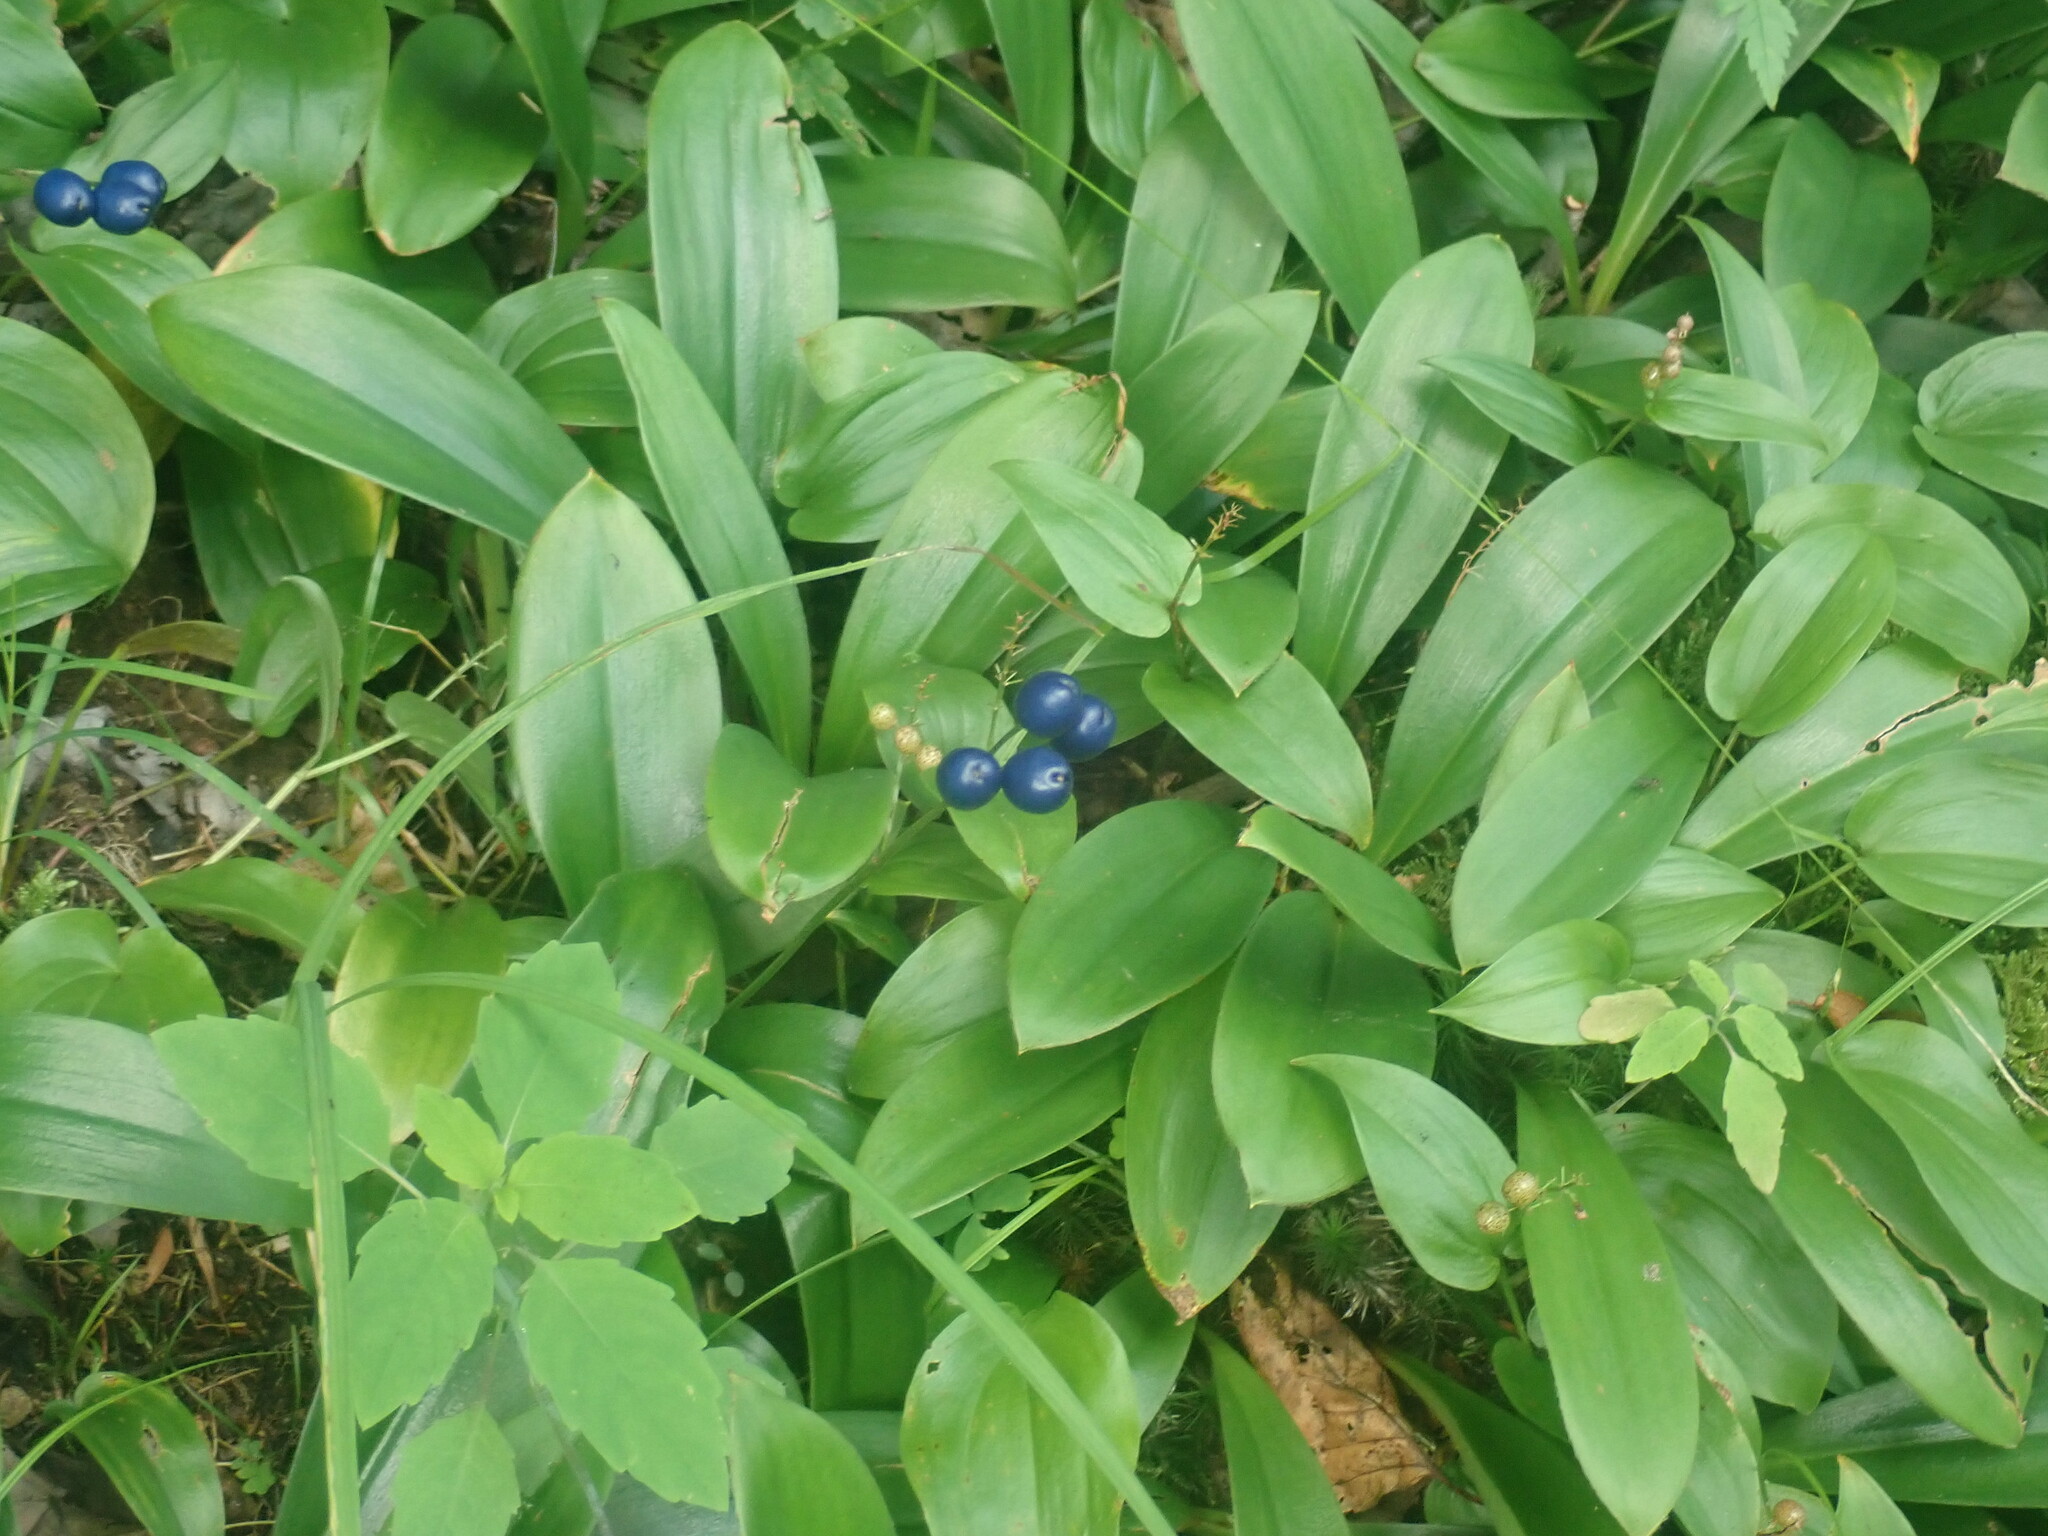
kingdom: Plantae
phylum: Tracheophyta
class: Liliopsida
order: Liliales
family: Liliaceae
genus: Clintonia
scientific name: Clintonia borealis
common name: Yellow clintonia
